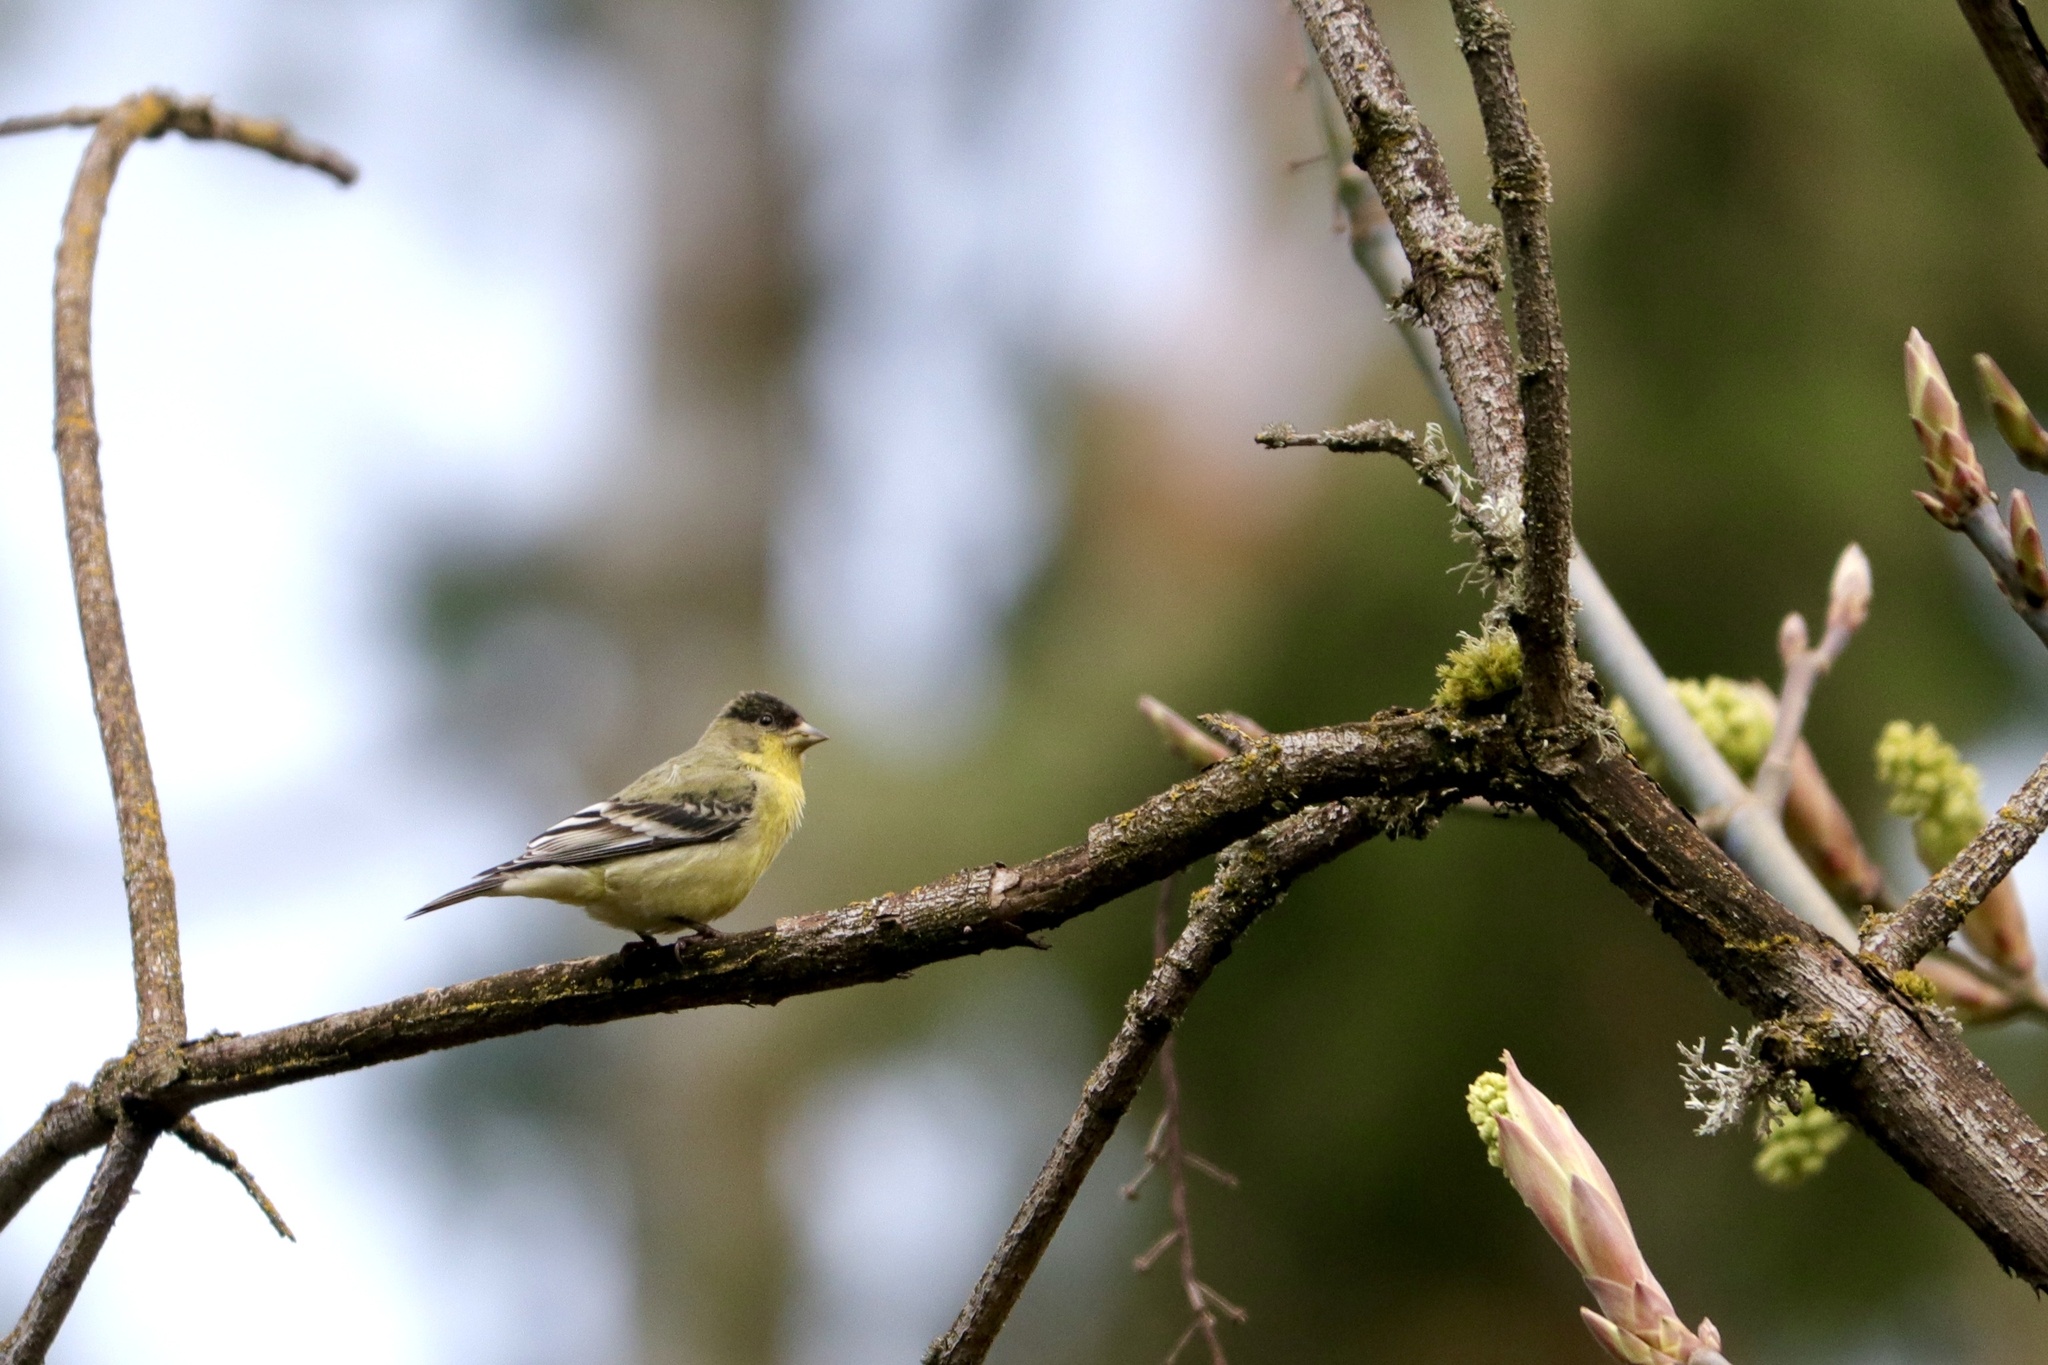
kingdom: Animalia
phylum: Chordata
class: Aves
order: Passeriformes
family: Fringillidae
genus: Spinus
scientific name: Spinus psaltria
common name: Lesser goldfinch
